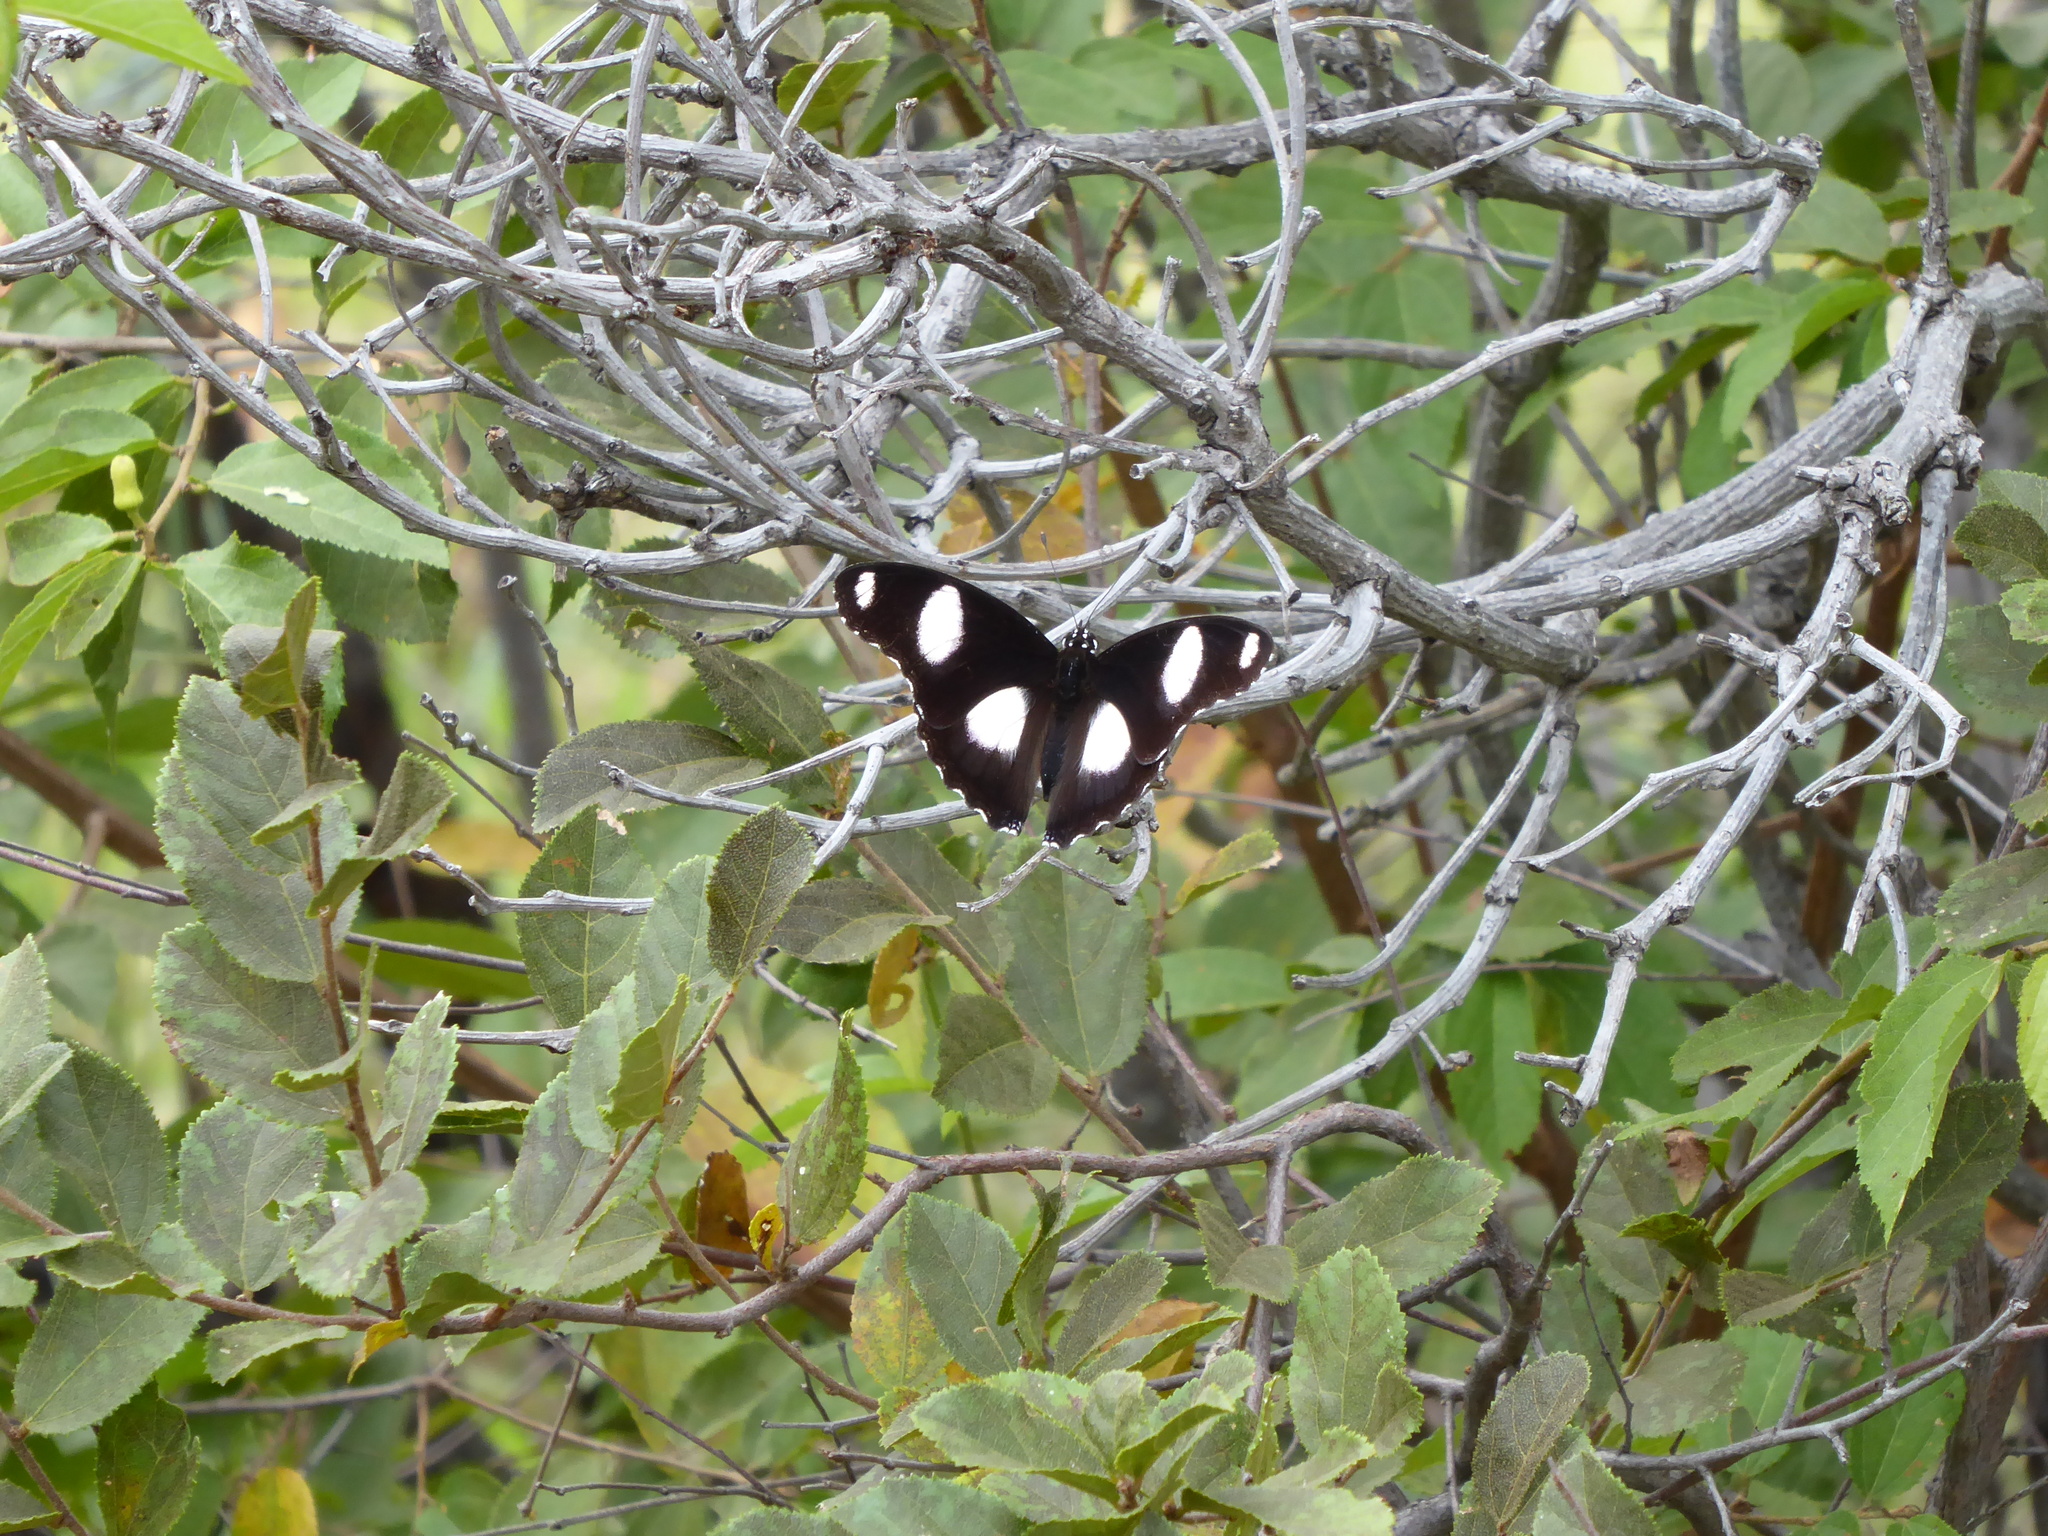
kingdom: Animalia
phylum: Arthropoda
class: Insecta
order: Lepidoptera
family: Nymphalidae
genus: Hypolimnas
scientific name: Hypolimnas misippus
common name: False plain tiger
